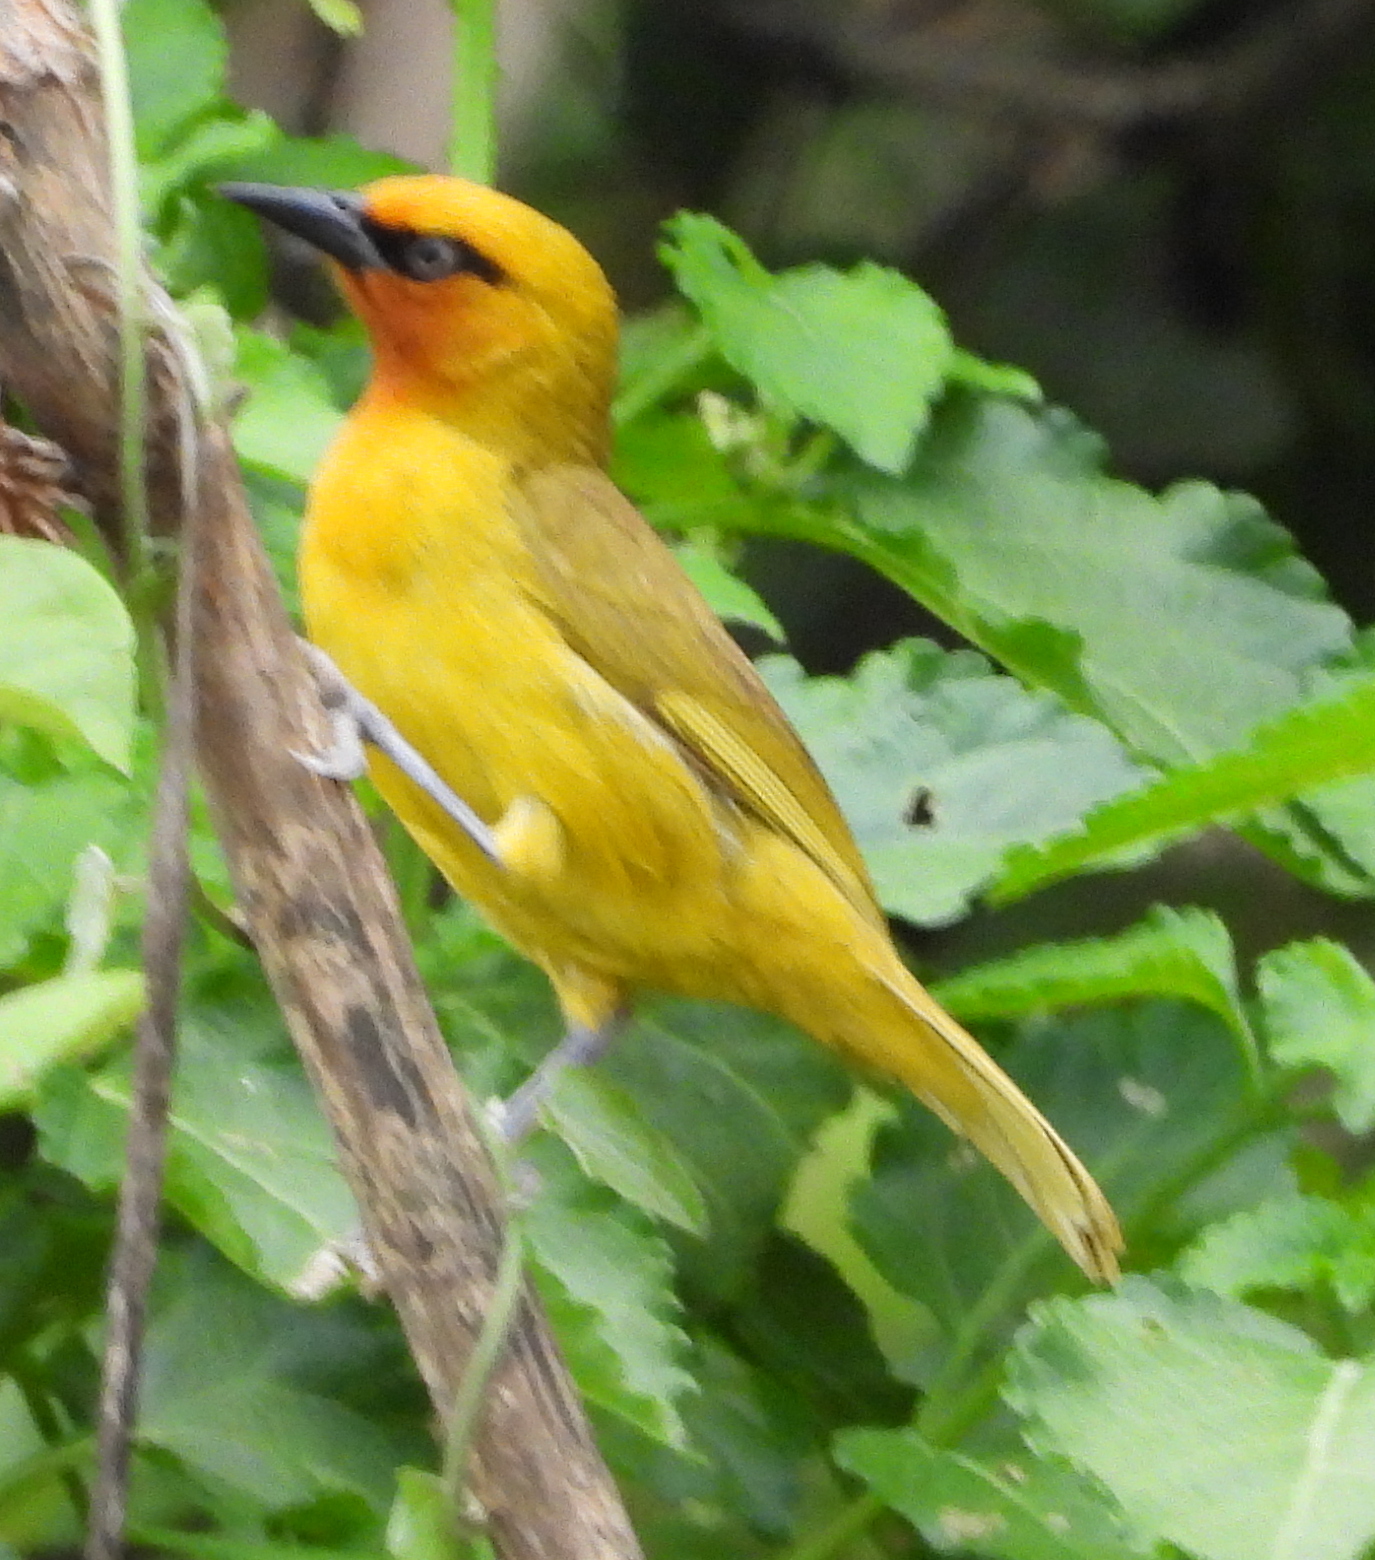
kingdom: Animalia
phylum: Chordata
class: Aves
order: Passeriformes
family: Ploceidae
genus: Ploceus
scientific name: Ploceus ocularis
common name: Spectacled weaver
